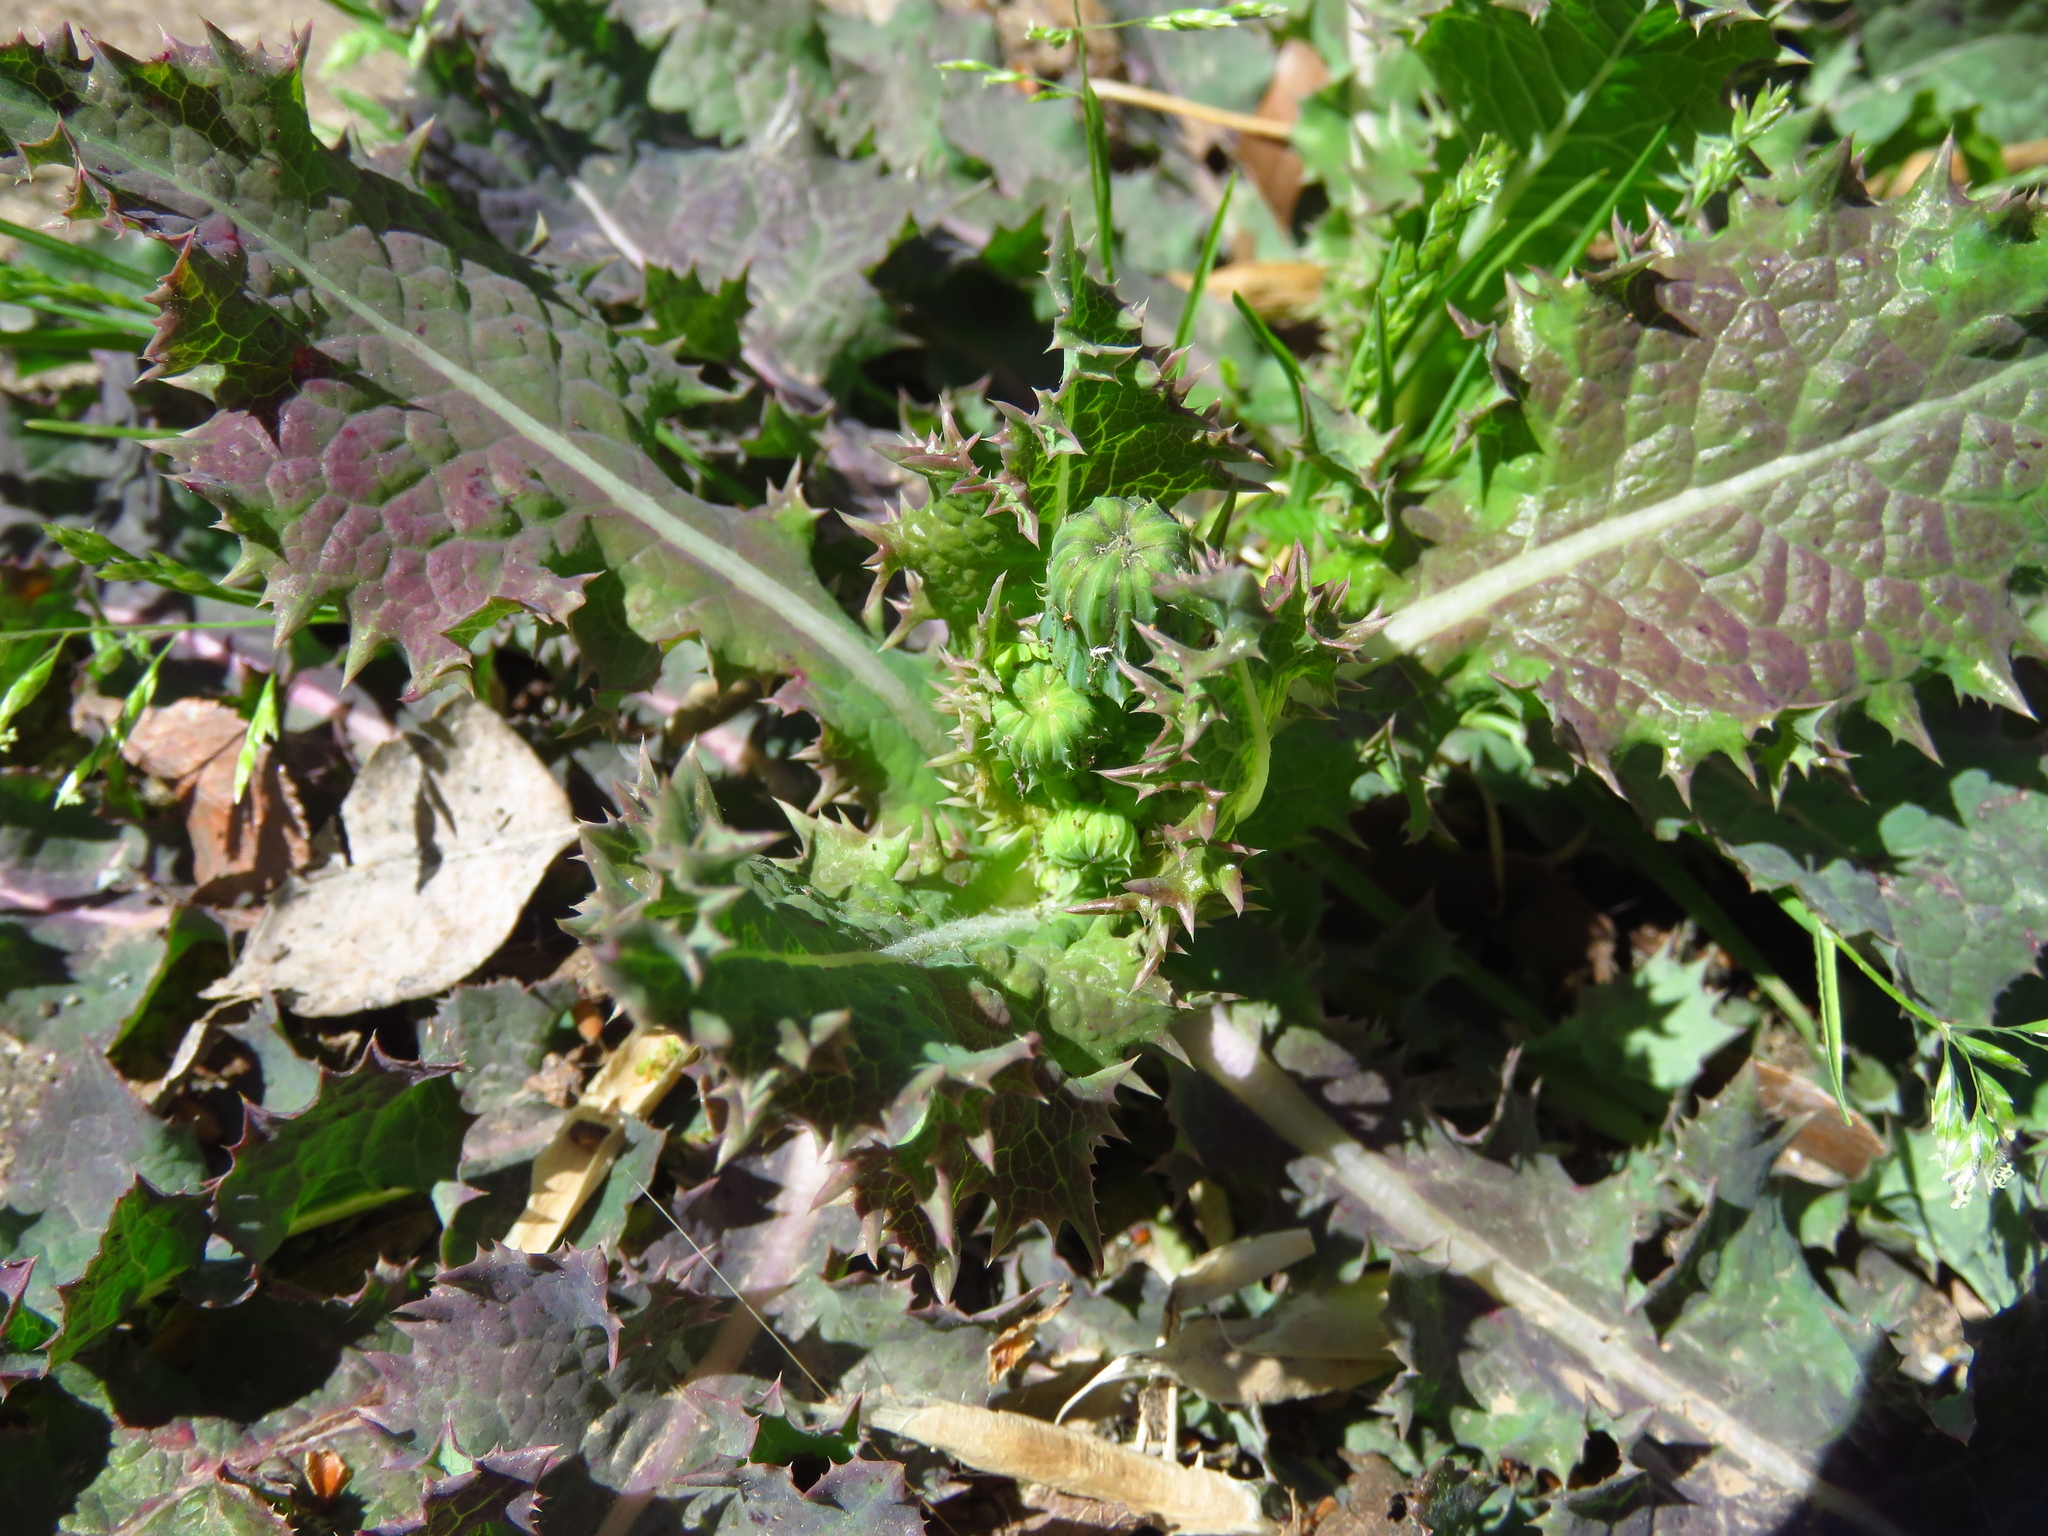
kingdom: Plantae
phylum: Tracheophyta
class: Magnoliopsida
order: Asterales
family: Asteraceae
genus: Sonchus
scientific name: Sonchus asper
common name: Prickly sow-thistle
